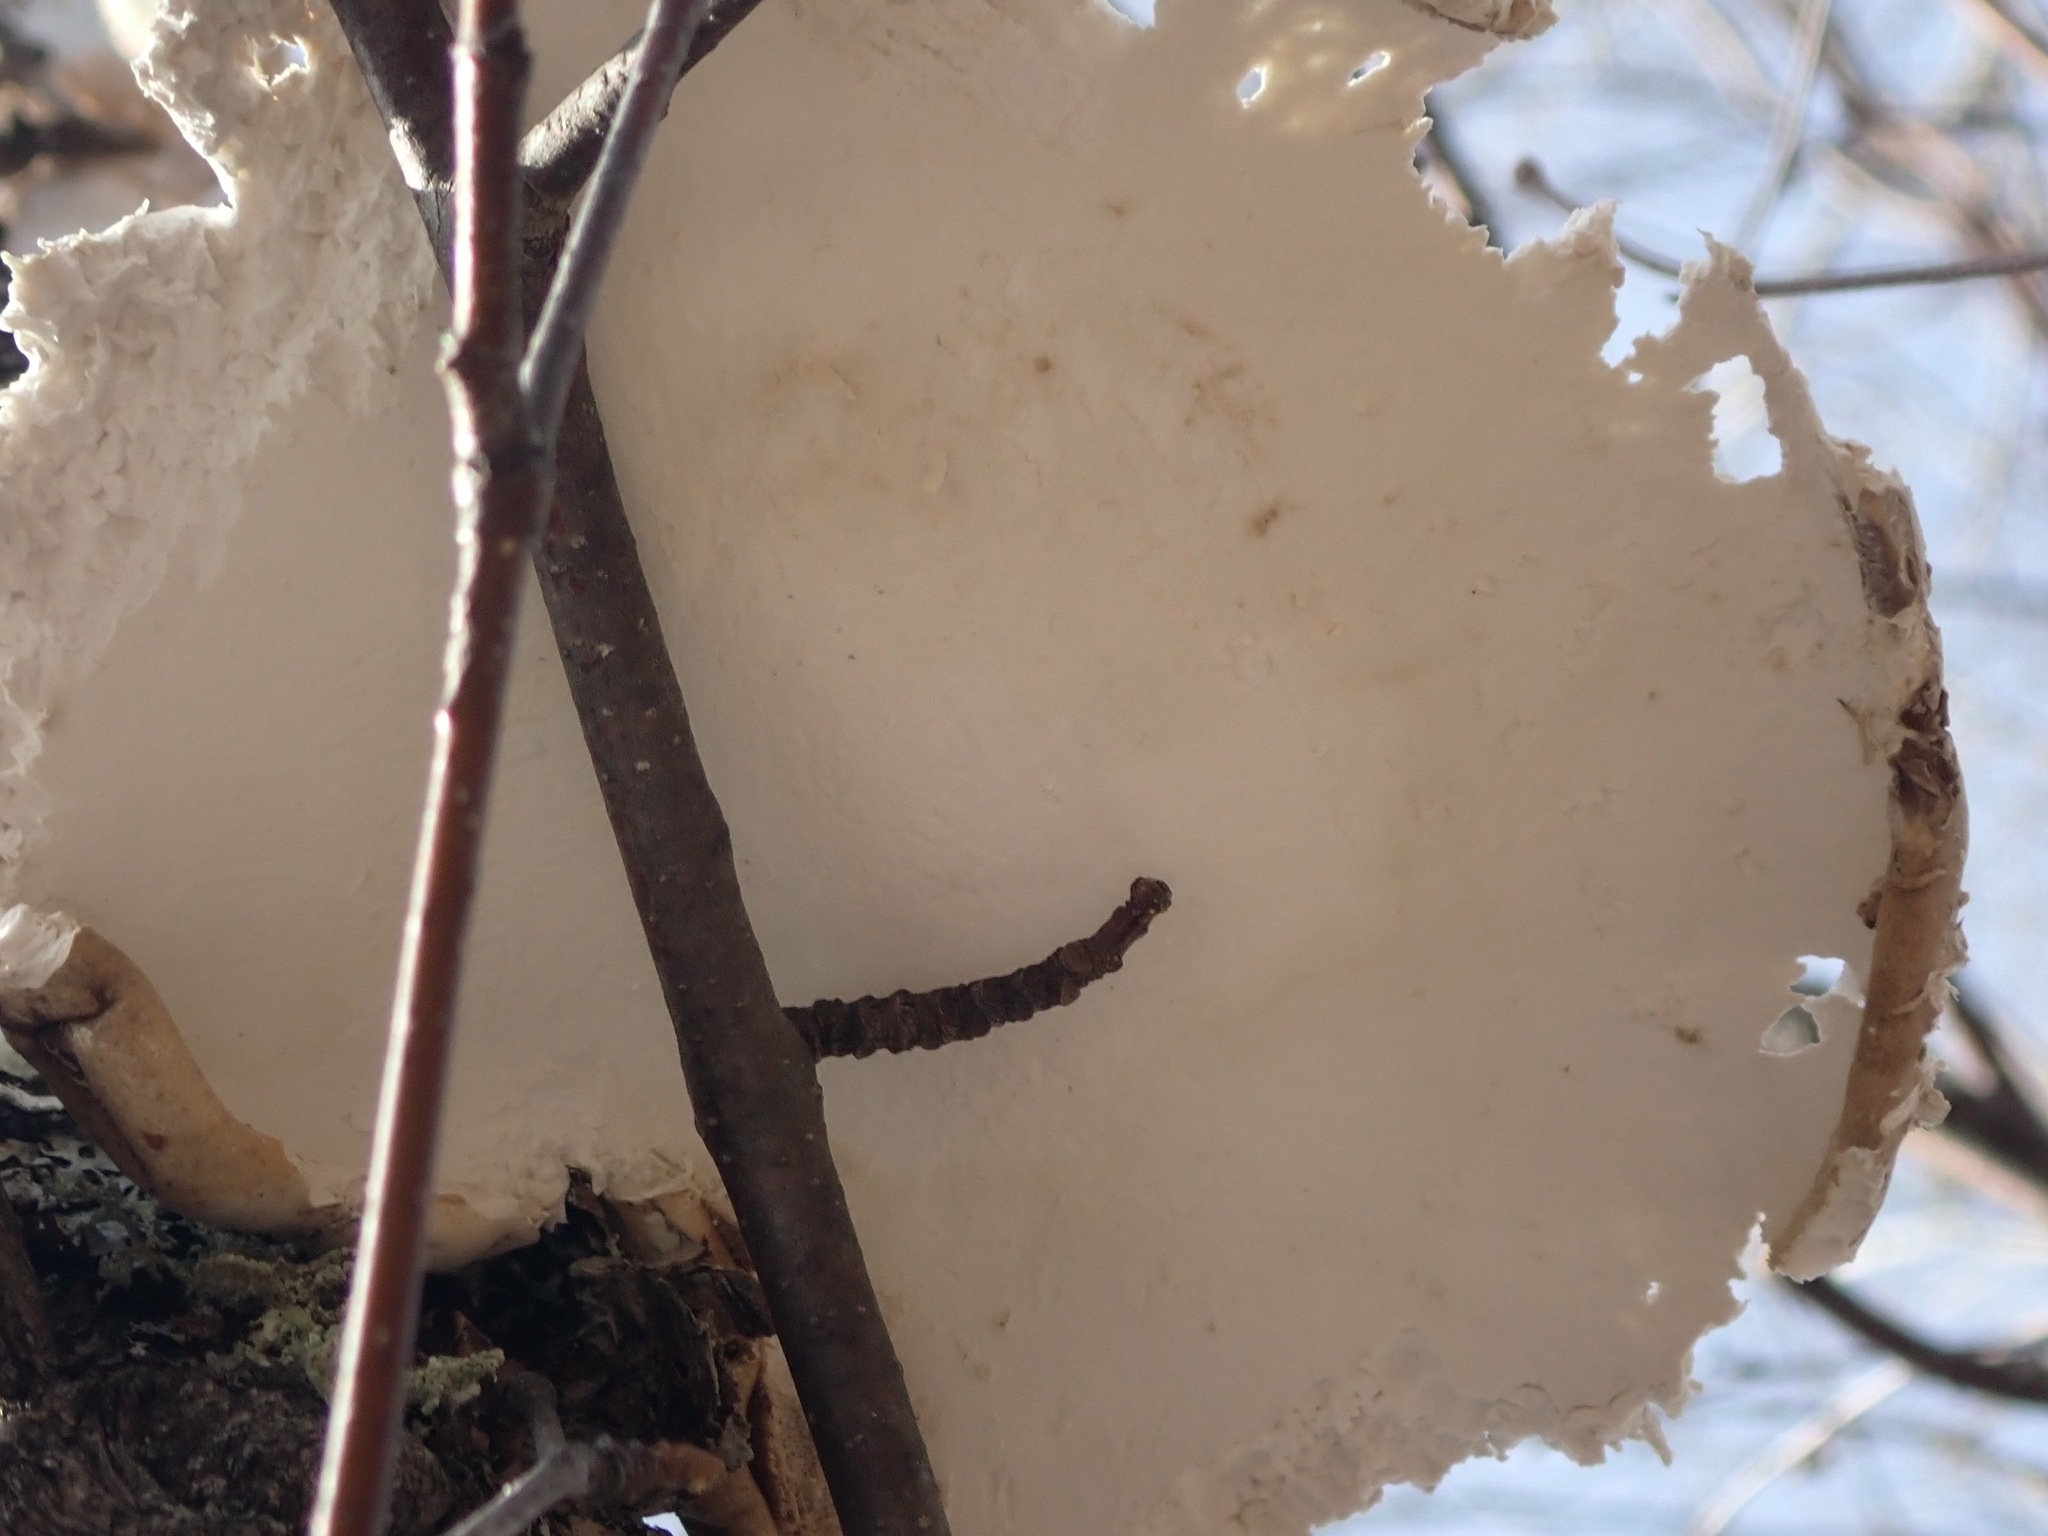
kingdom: Fungi
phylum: Basidiomycota
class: Agaricomycetes
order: Polyporales
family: Fomitopsidaceae
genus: Fomitopsis
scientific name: Fomitopsis betulina
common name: Birch polypore
